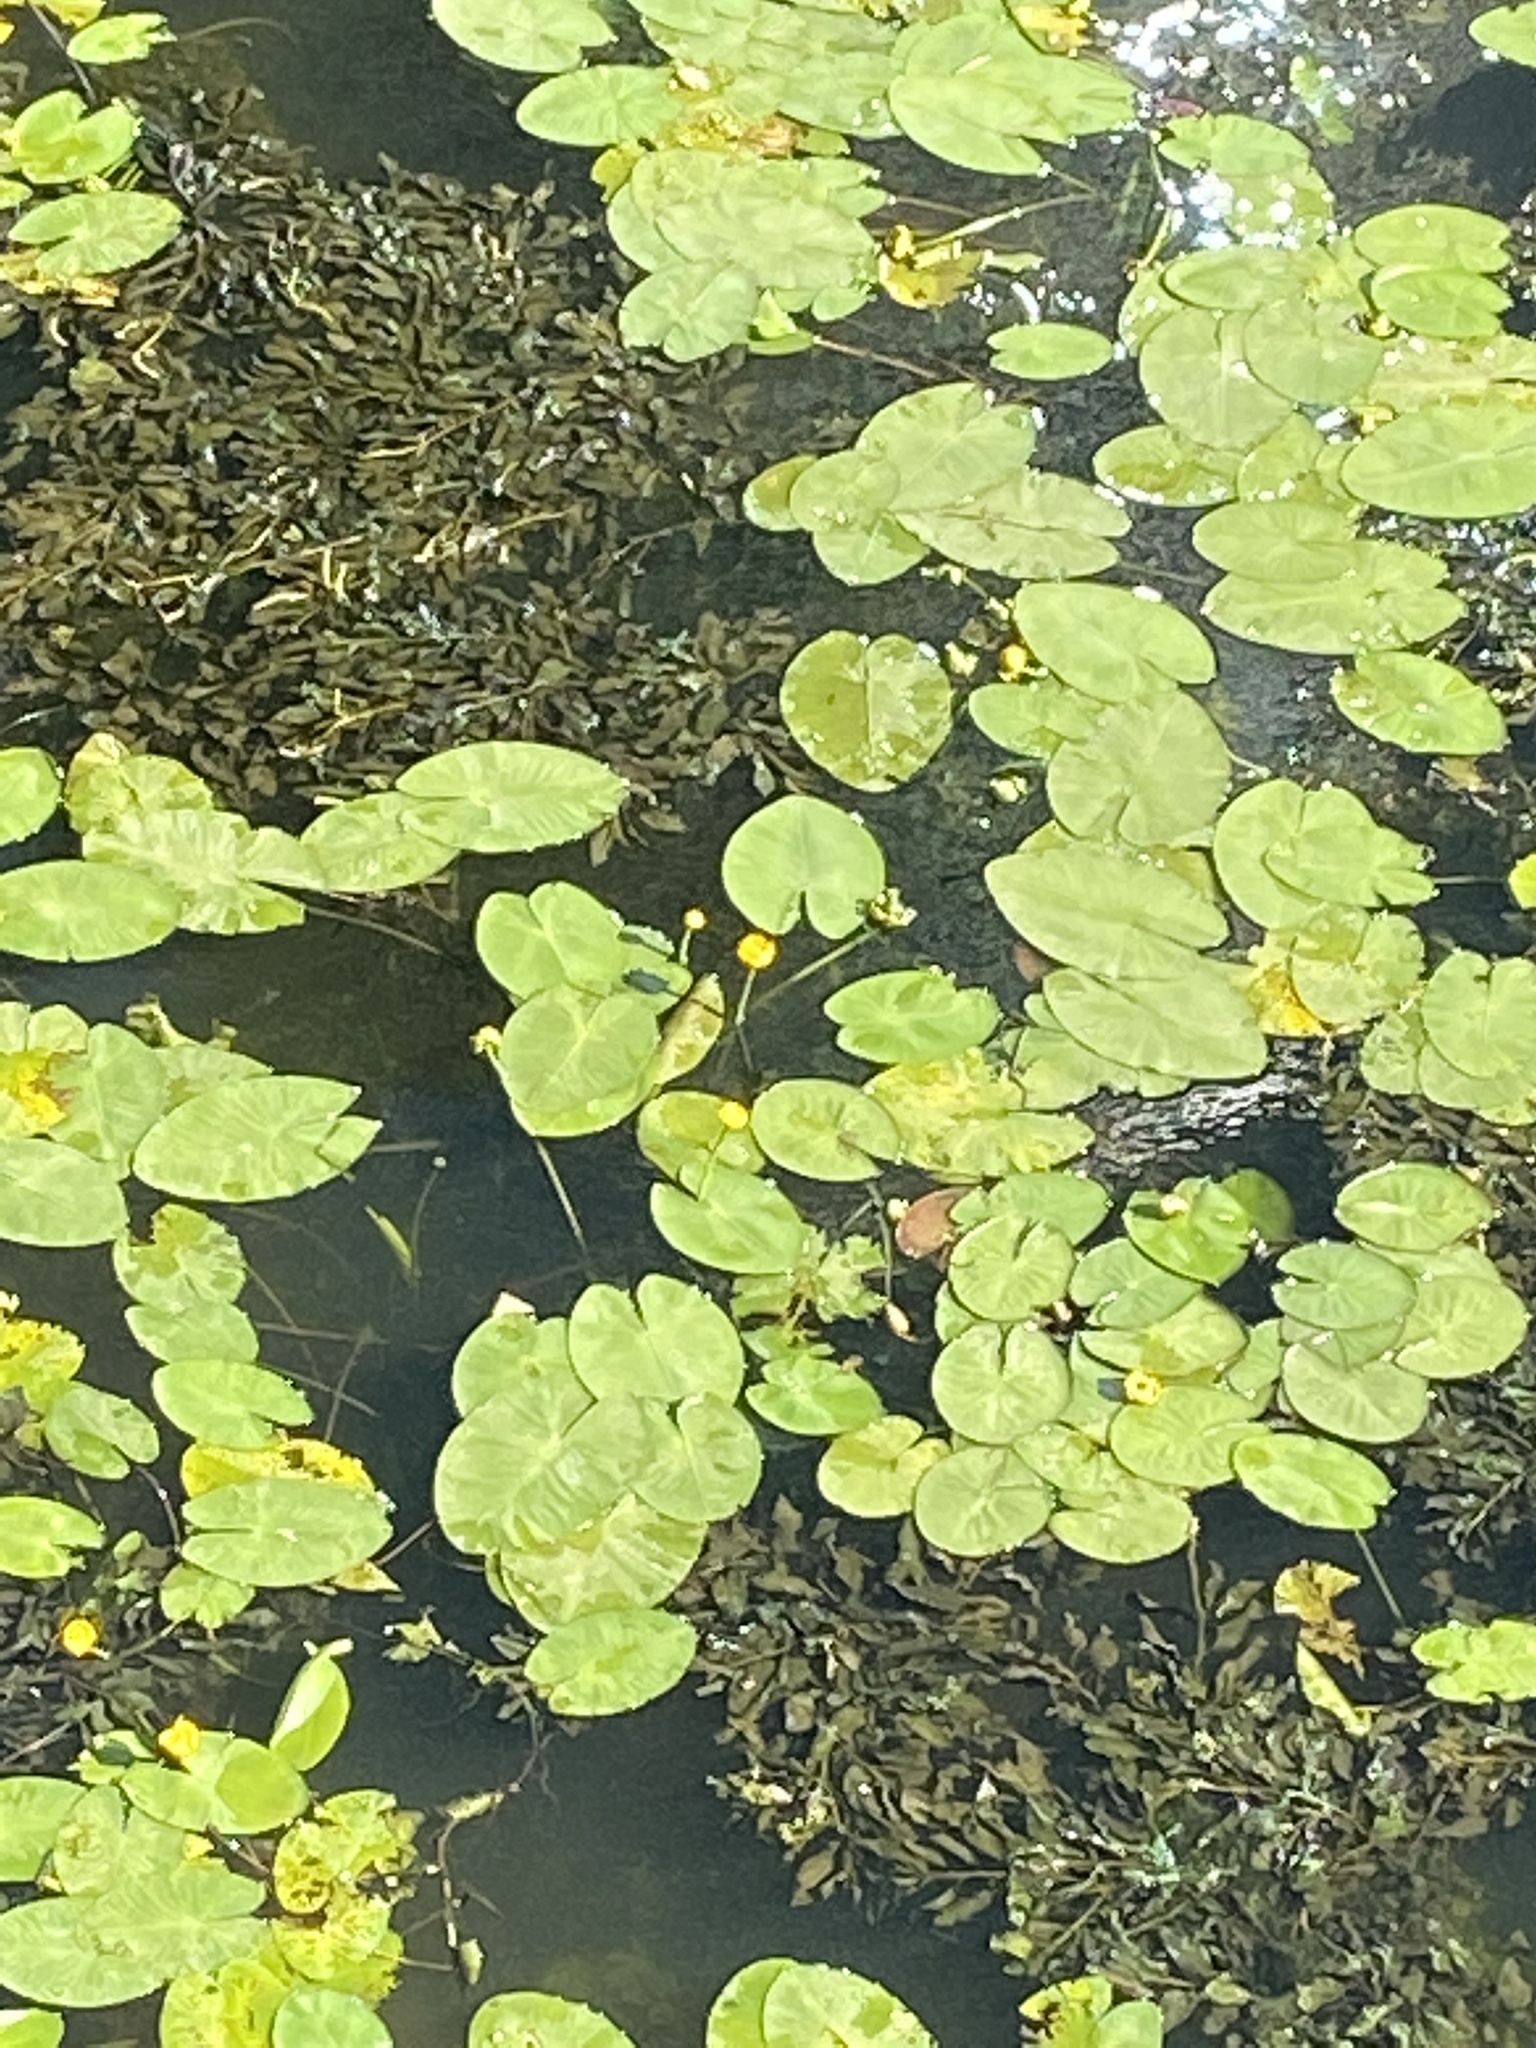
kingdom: Plantae
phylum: Tracheophyta
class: Magnoliopsida
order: Nymphaeales
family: Nymphaeaceae
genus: Nuphar
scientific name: Nuphar lutea
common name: Yellow water-lily
